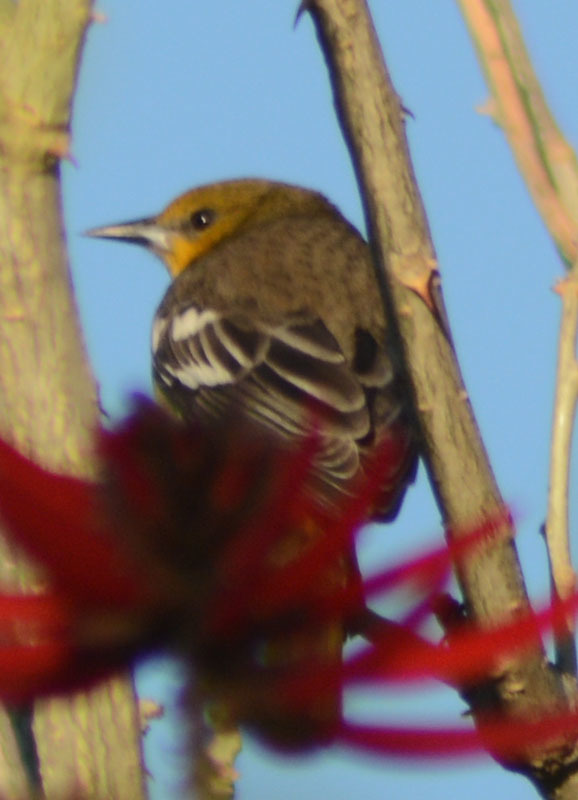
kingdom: Animalia
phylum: Chordata
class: Aves
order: Passeriformes
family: Icteridae
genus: Icterus
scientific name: Icterus bullockii
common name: Bullock's oriole
